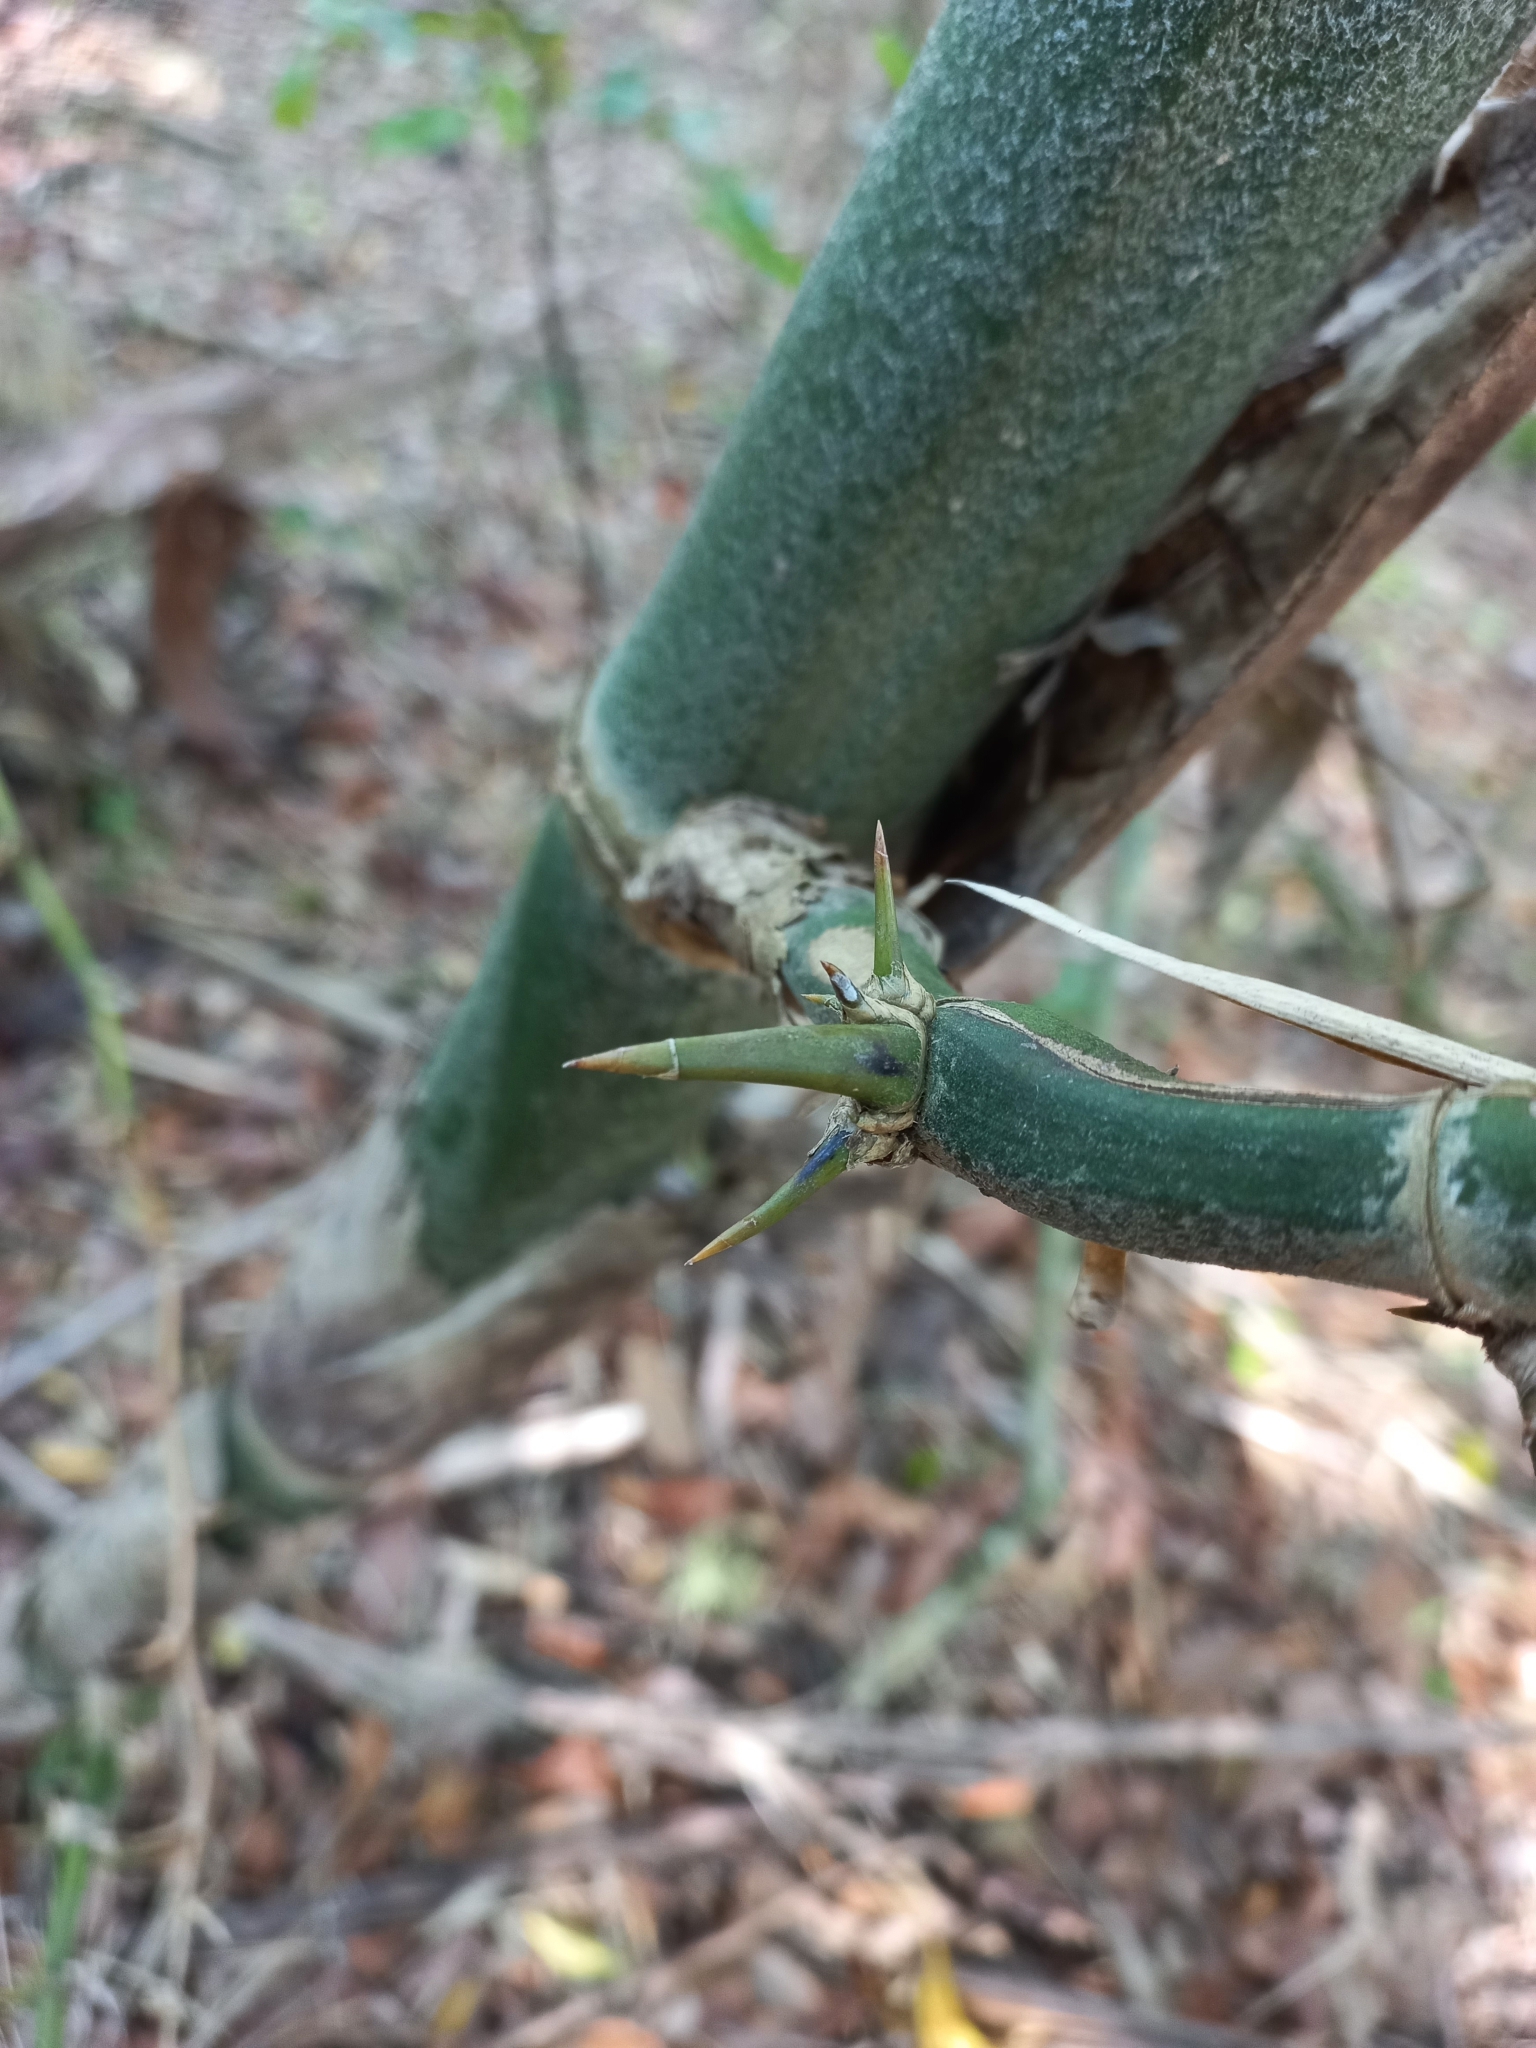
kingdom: Plantae
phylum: Tracheophyta
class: Liliopsida
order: Poales
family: Poaceae
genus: Guadua
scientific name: Guadua trinii
